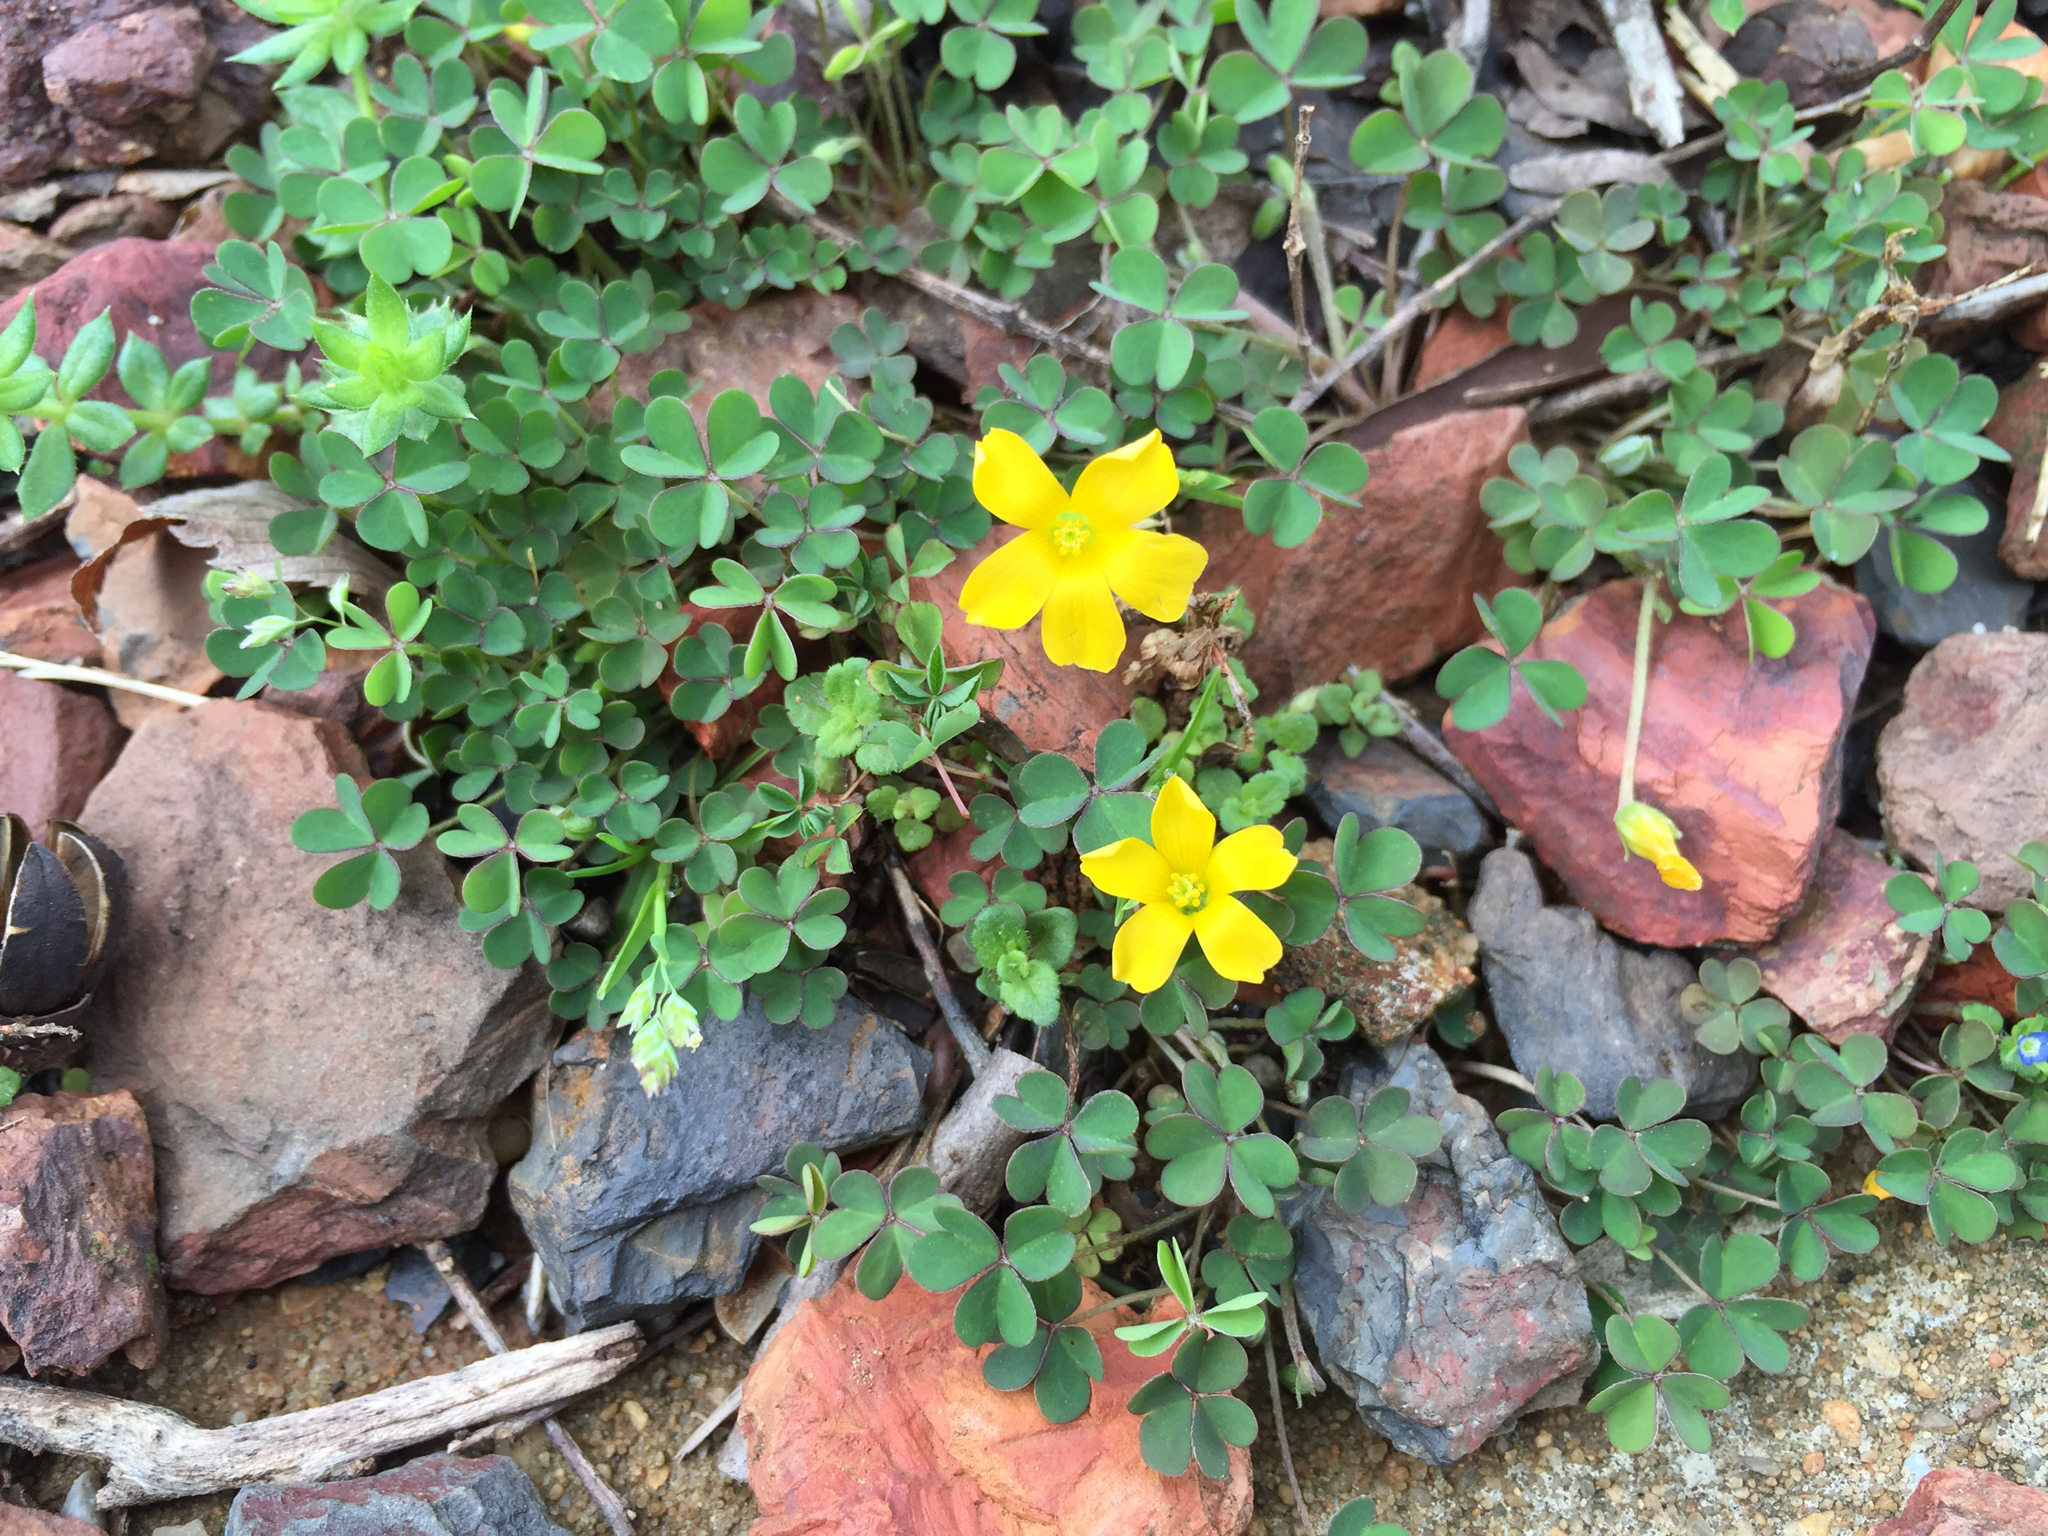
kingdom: Plantae
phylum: Tracheophyta
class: Magnoliopsida
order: Oxalidales
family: Oxalidaceae
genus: Oxalis
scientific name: Oxalis corniculata
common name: Procumbent yellow-sorrel
